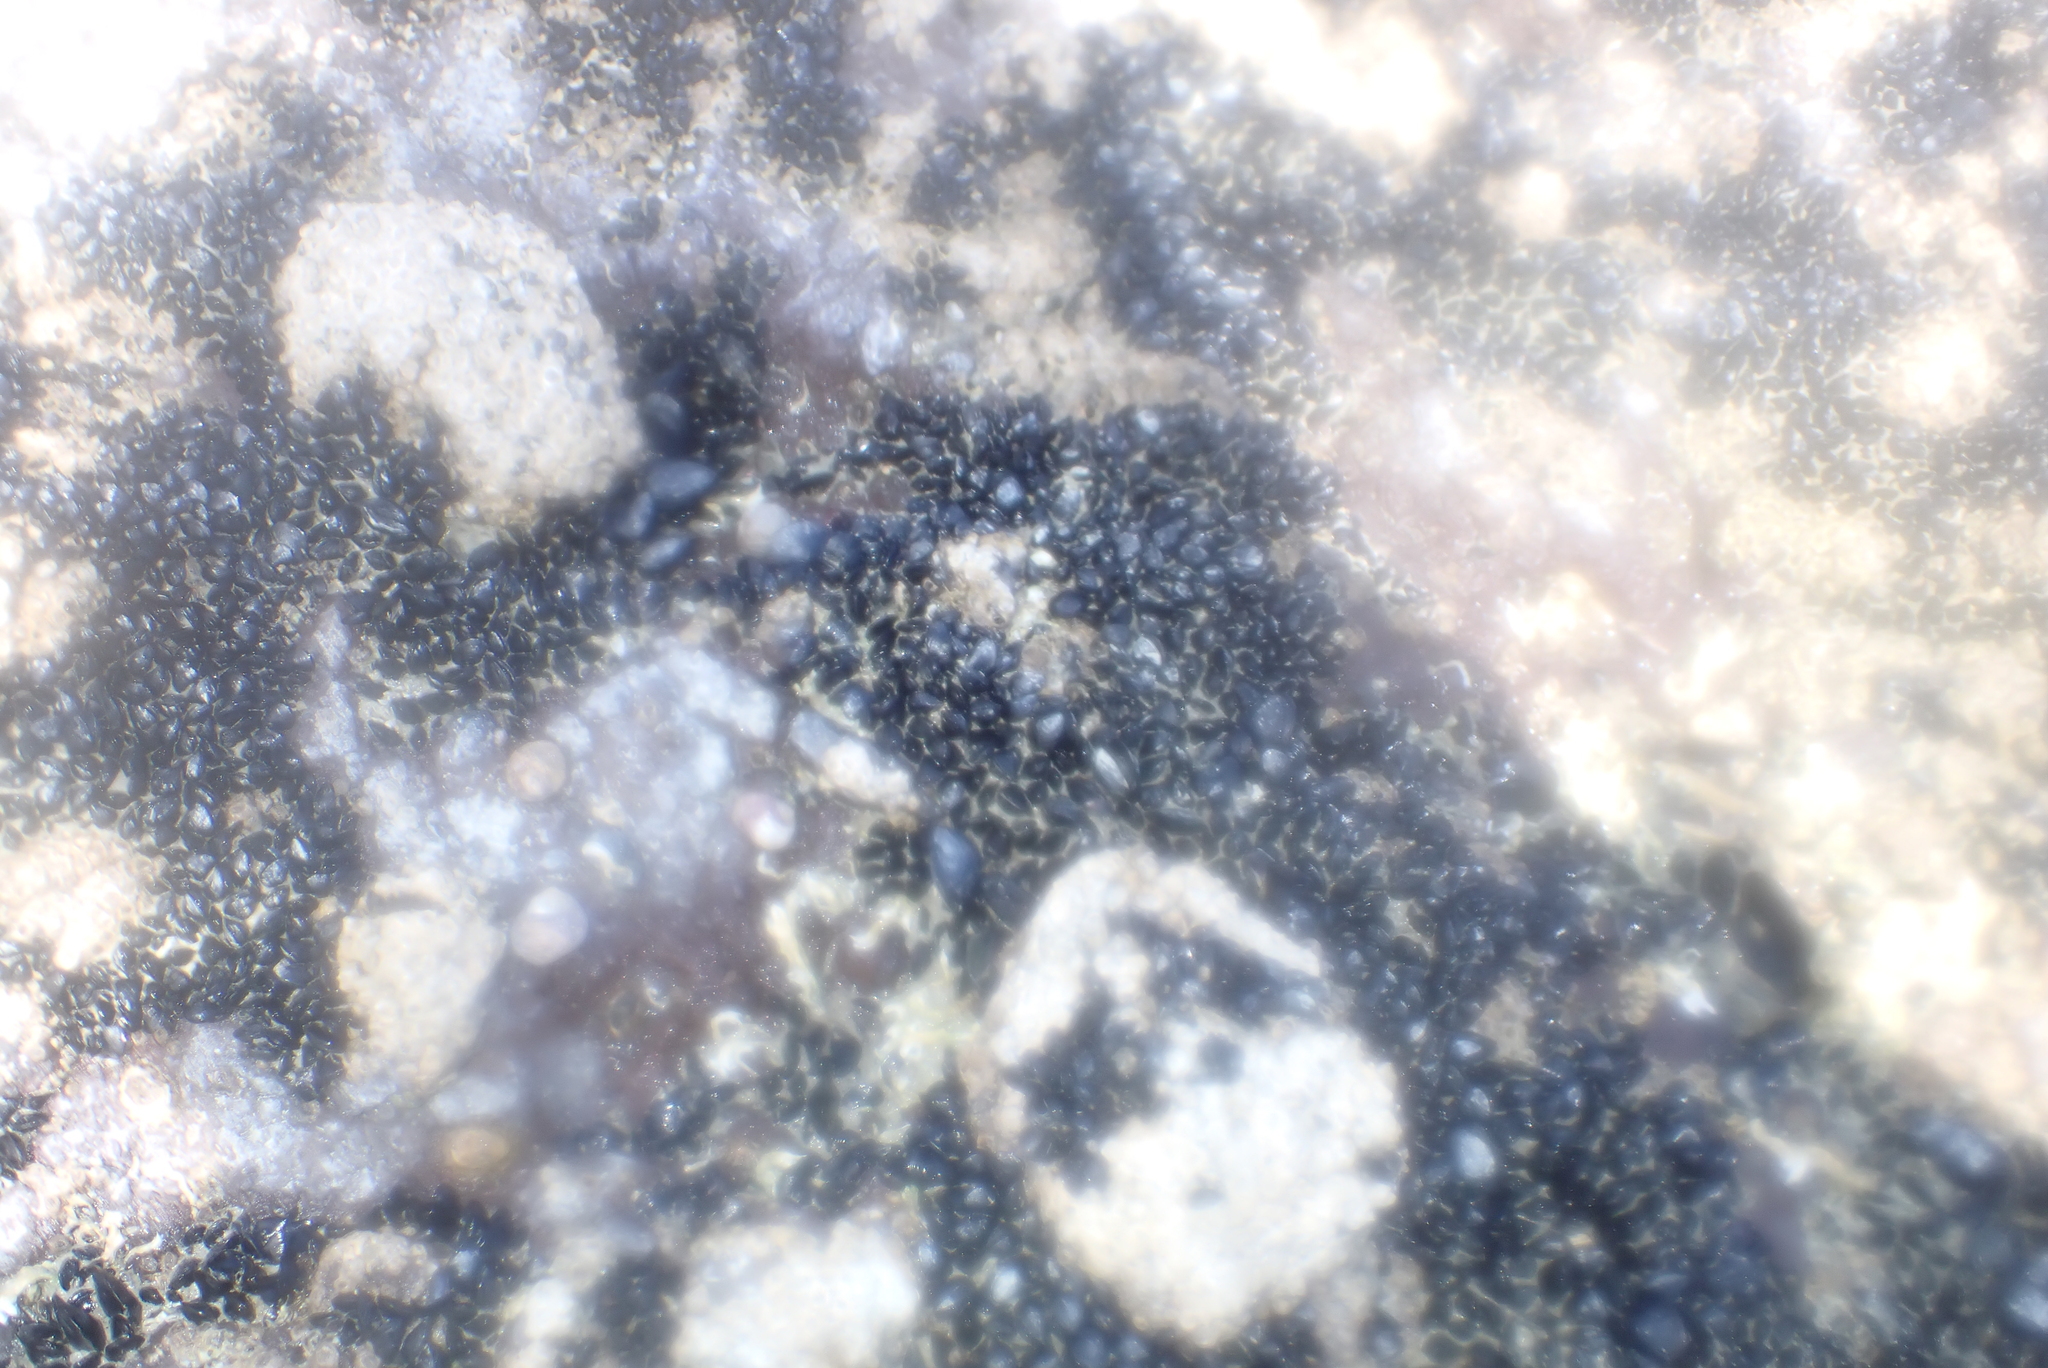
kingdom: Animalia
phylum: Mollusca
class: Bivalvia
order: Mytilida
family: Mytilidae
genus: Xenostrobus
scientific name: Xenostrobus neozelanicus
